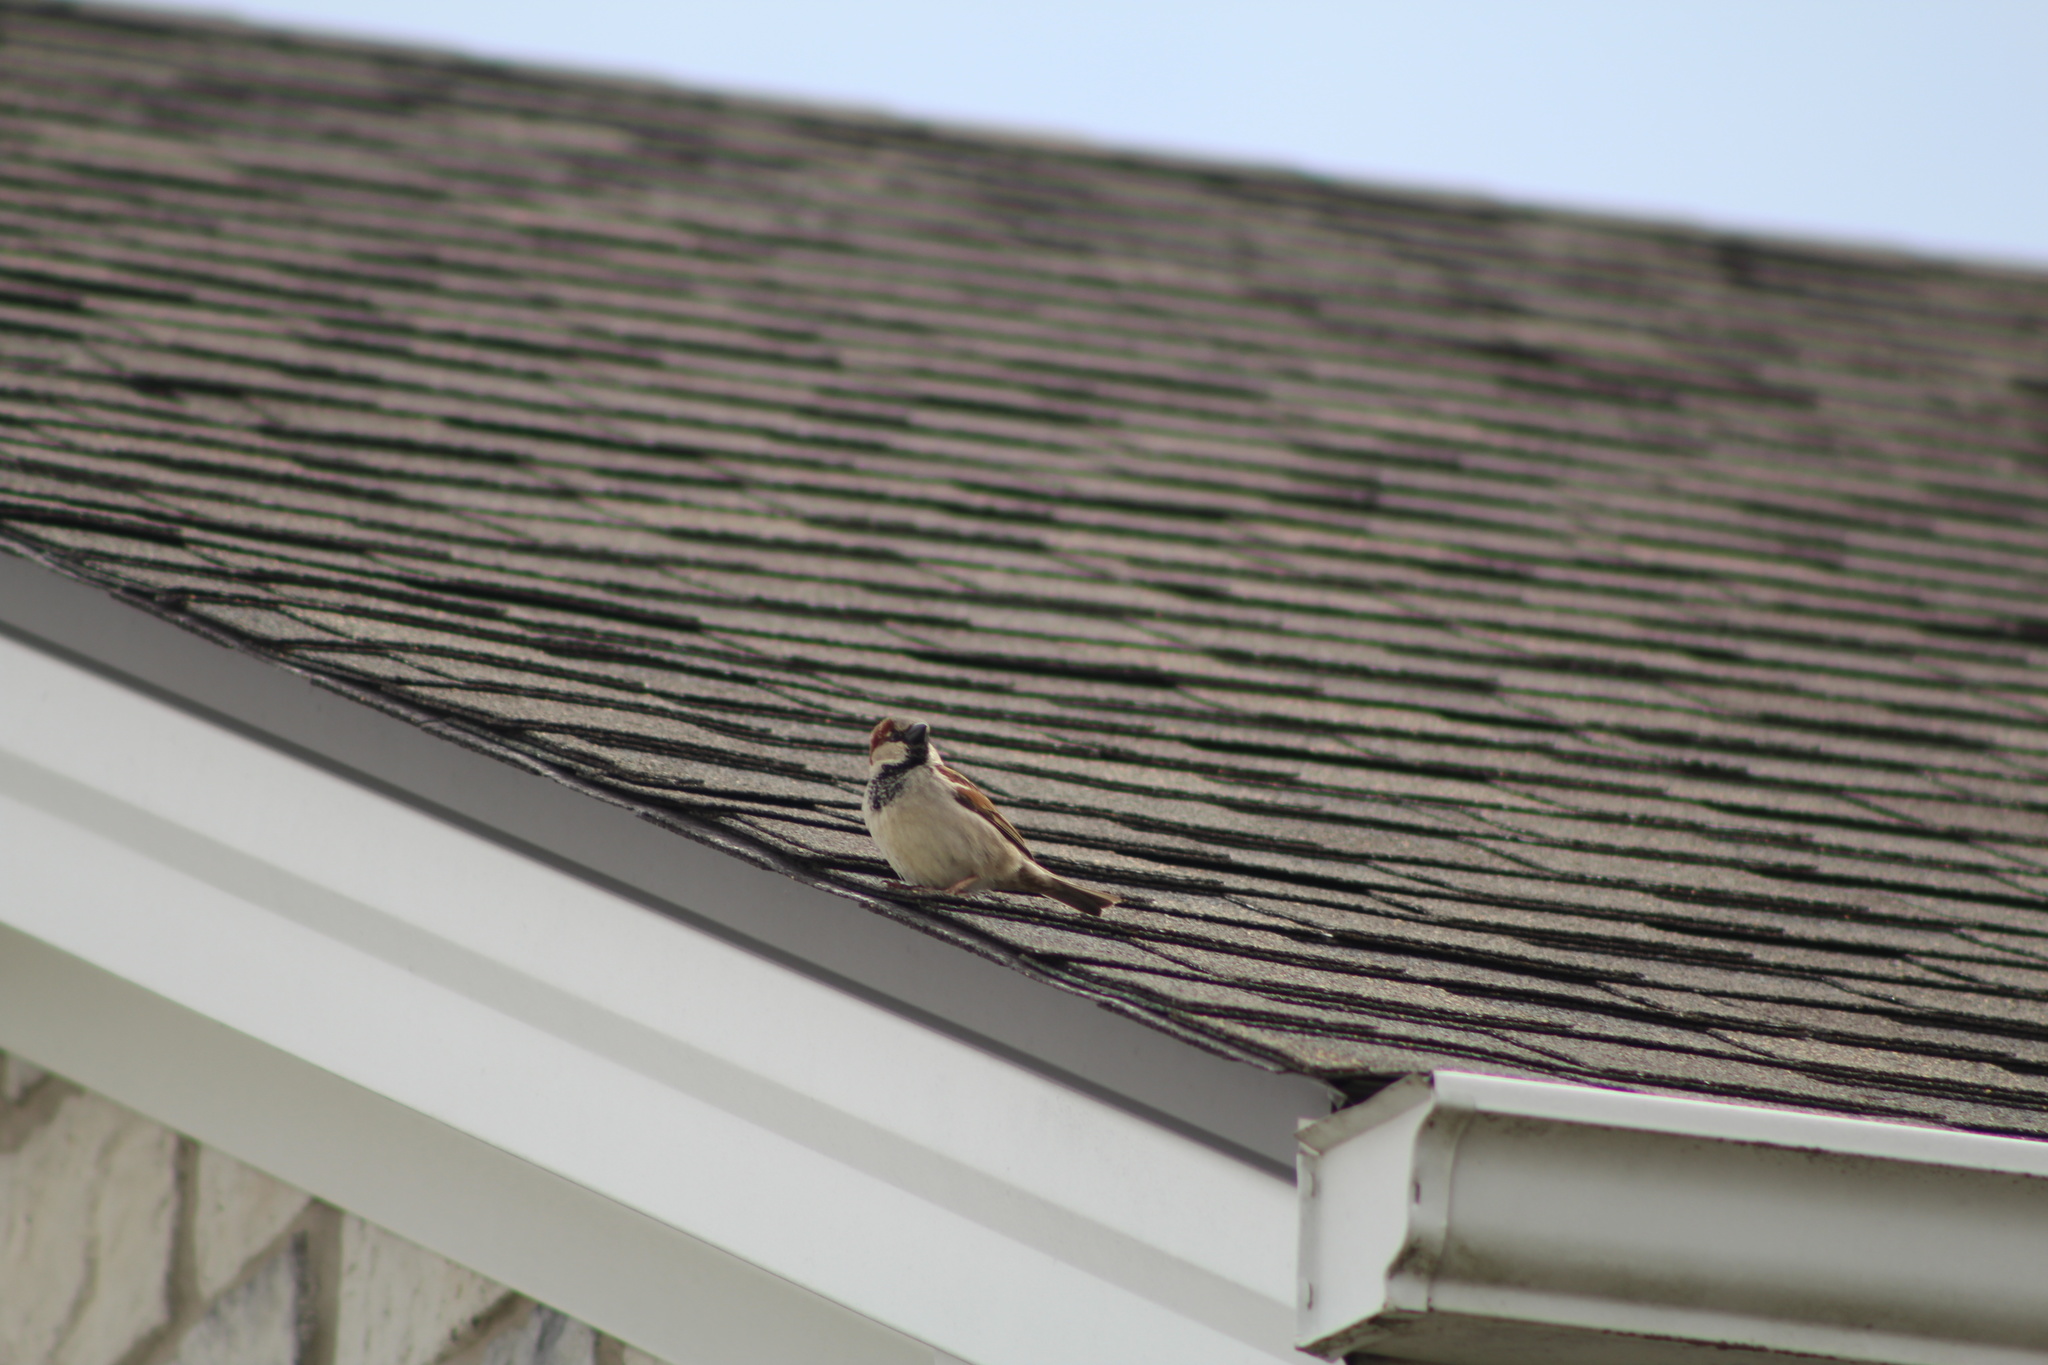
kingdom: Animalia
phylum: Chordata
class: Aves
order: Passeriformes
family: Passeridae
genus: Passer
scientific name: Passer domesticus
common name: House sparrow
